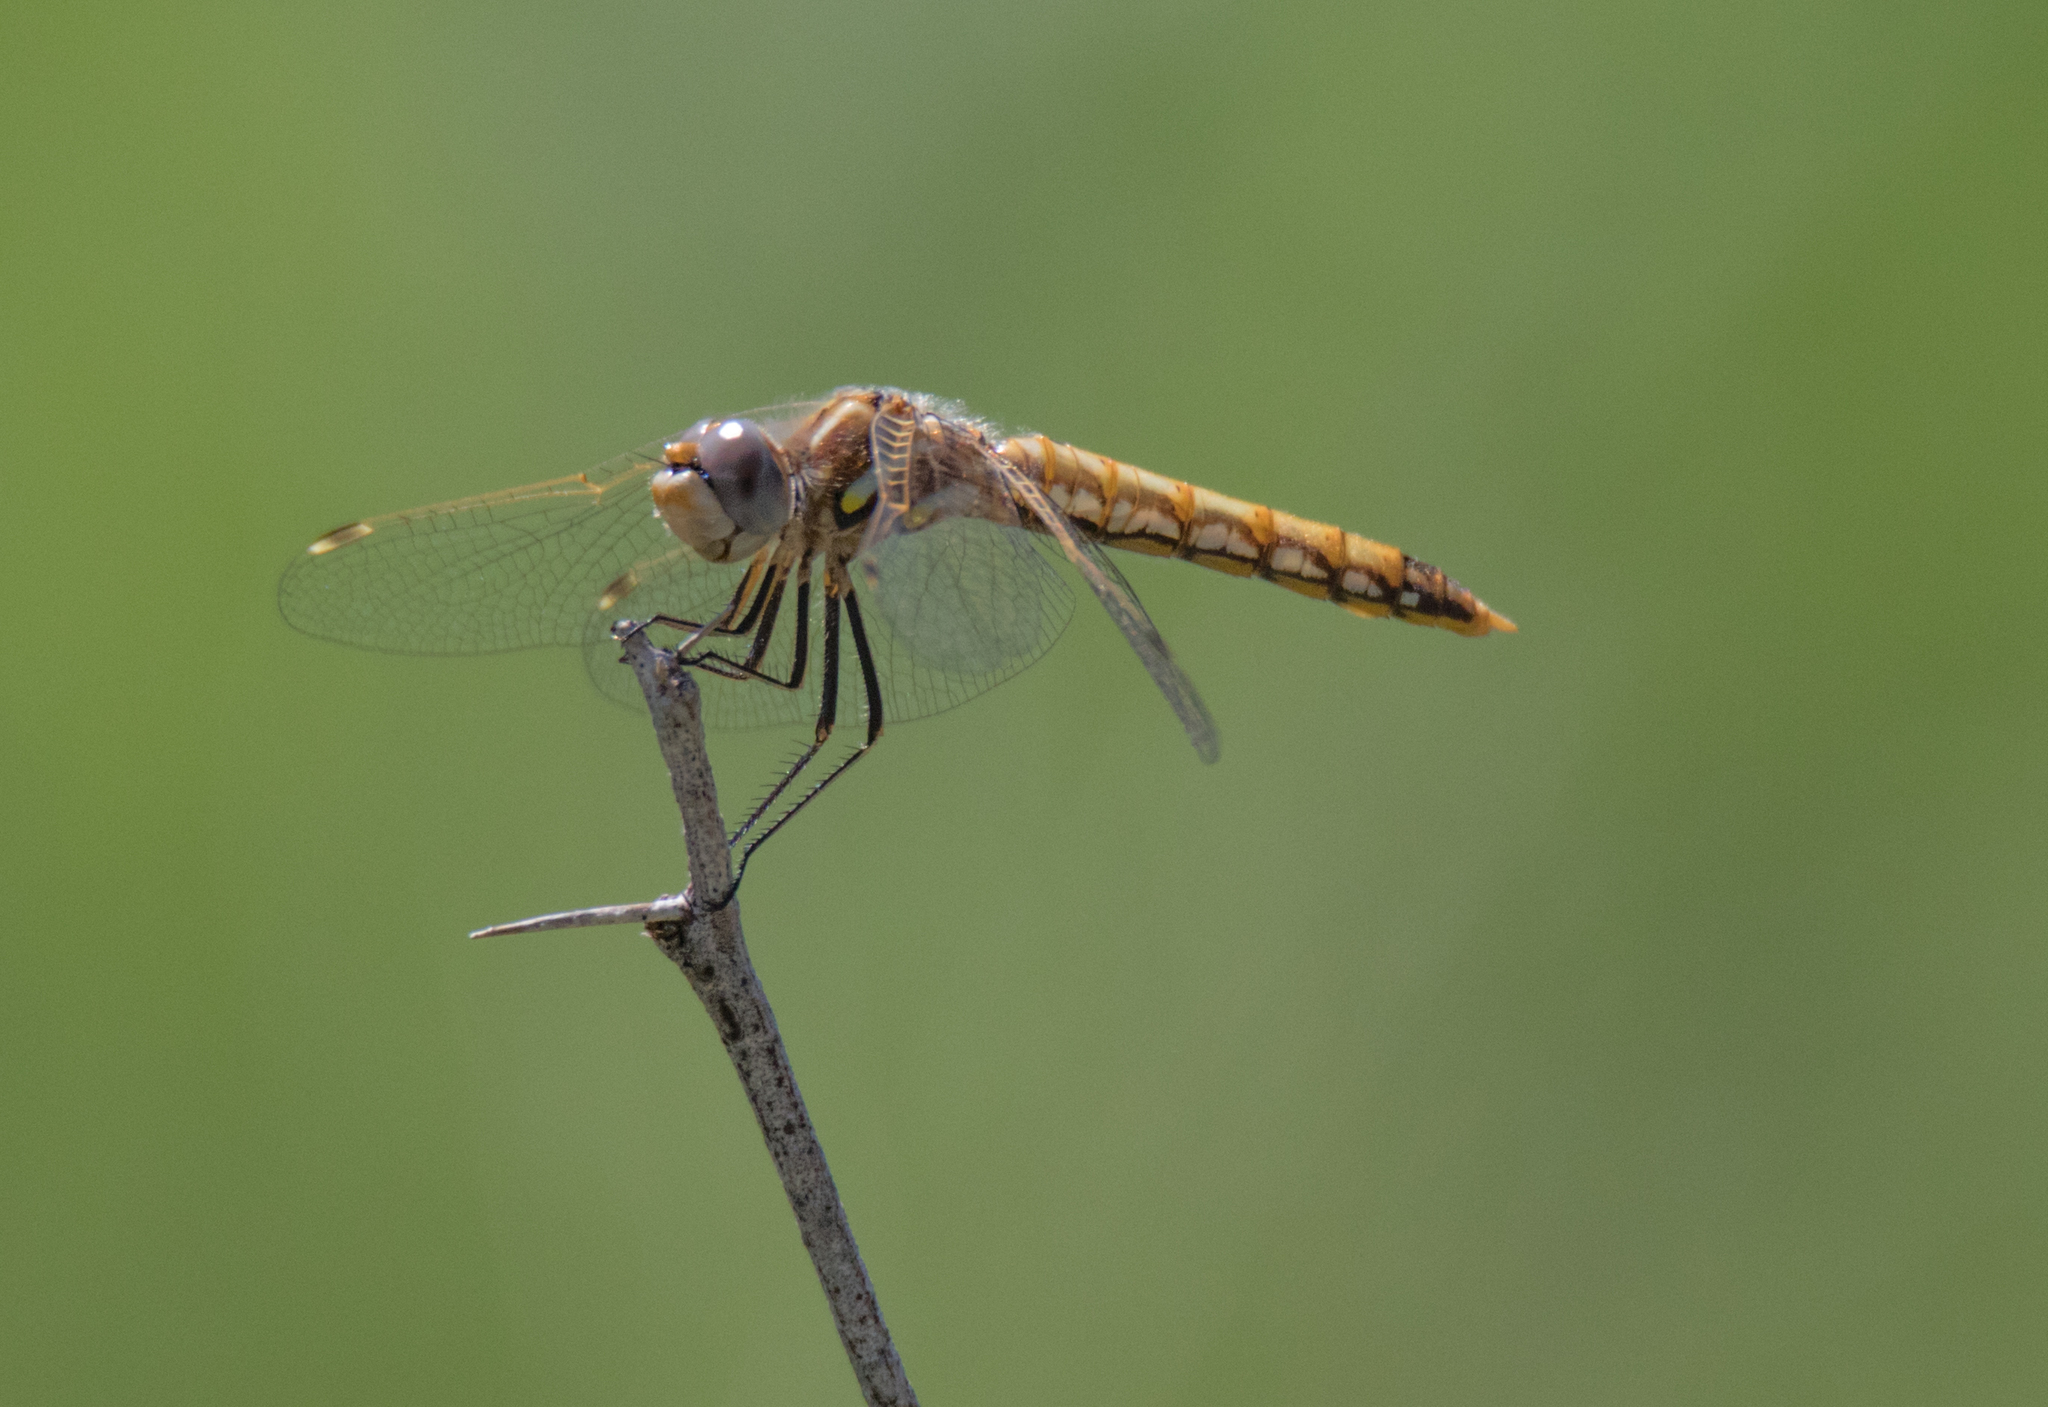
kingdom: Animalia
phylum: Arthropoda
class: Insecta
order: Odonata
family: Libellulidae
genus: Sympetrum
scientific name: Sympetrum corruptum
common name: Variegated meadowhawk
